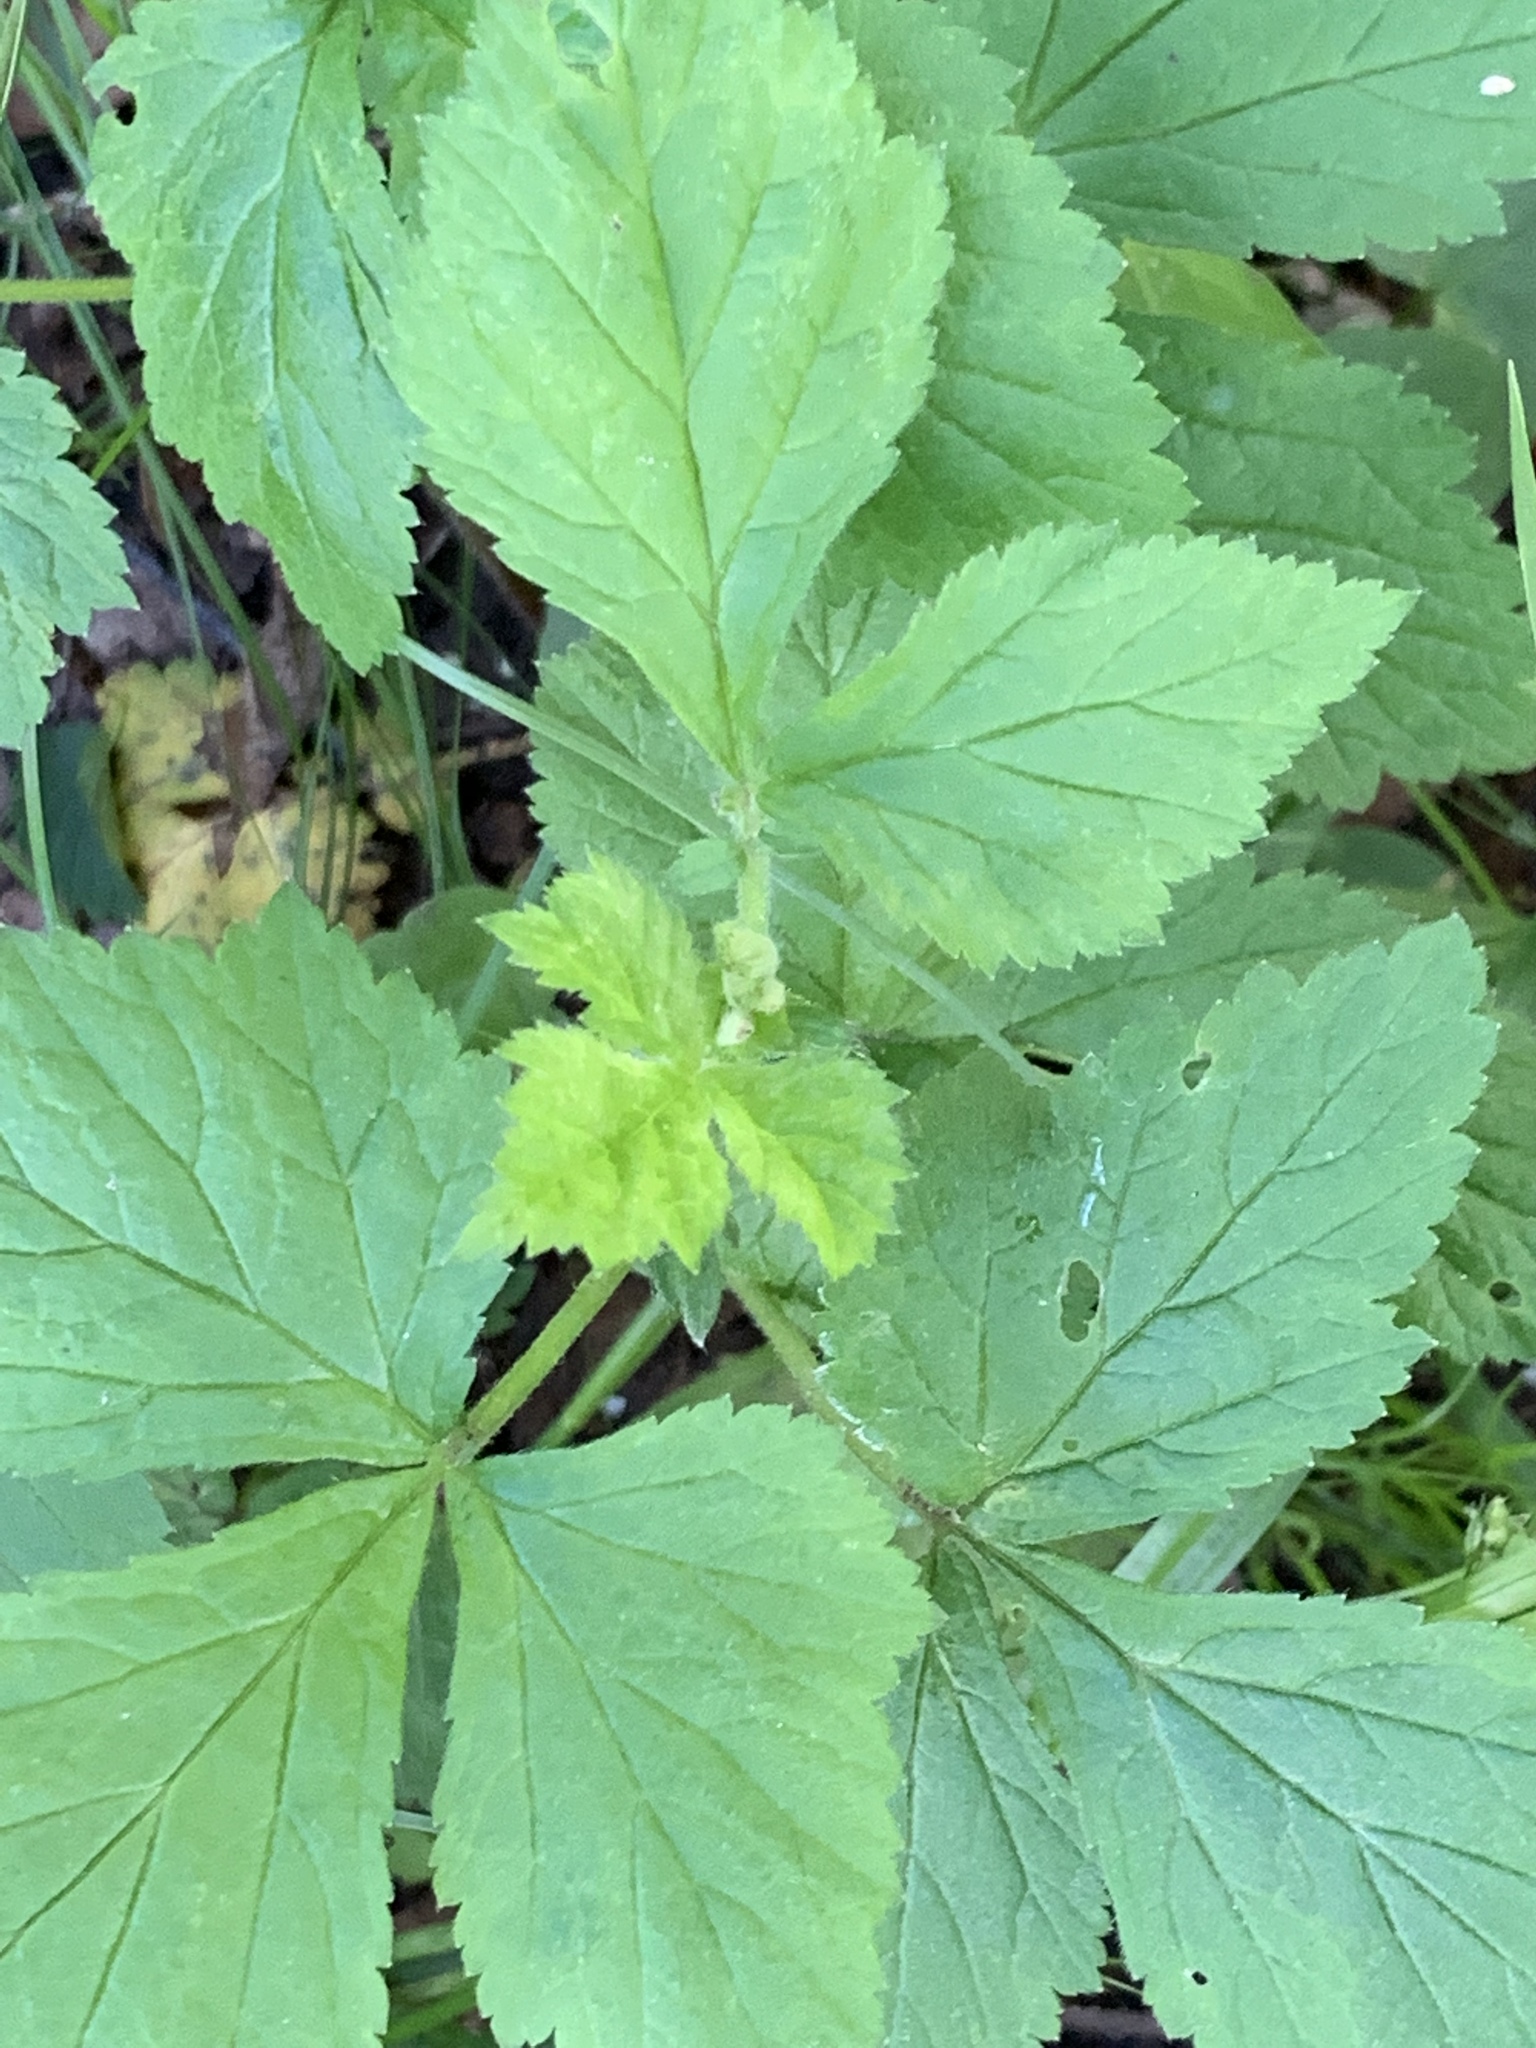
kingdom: Plantae
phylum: Tracheophyta
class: Magnoliopsida
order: Rosales
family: Rosaceae
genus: Geum
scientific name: Geum canadense
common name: White avens
